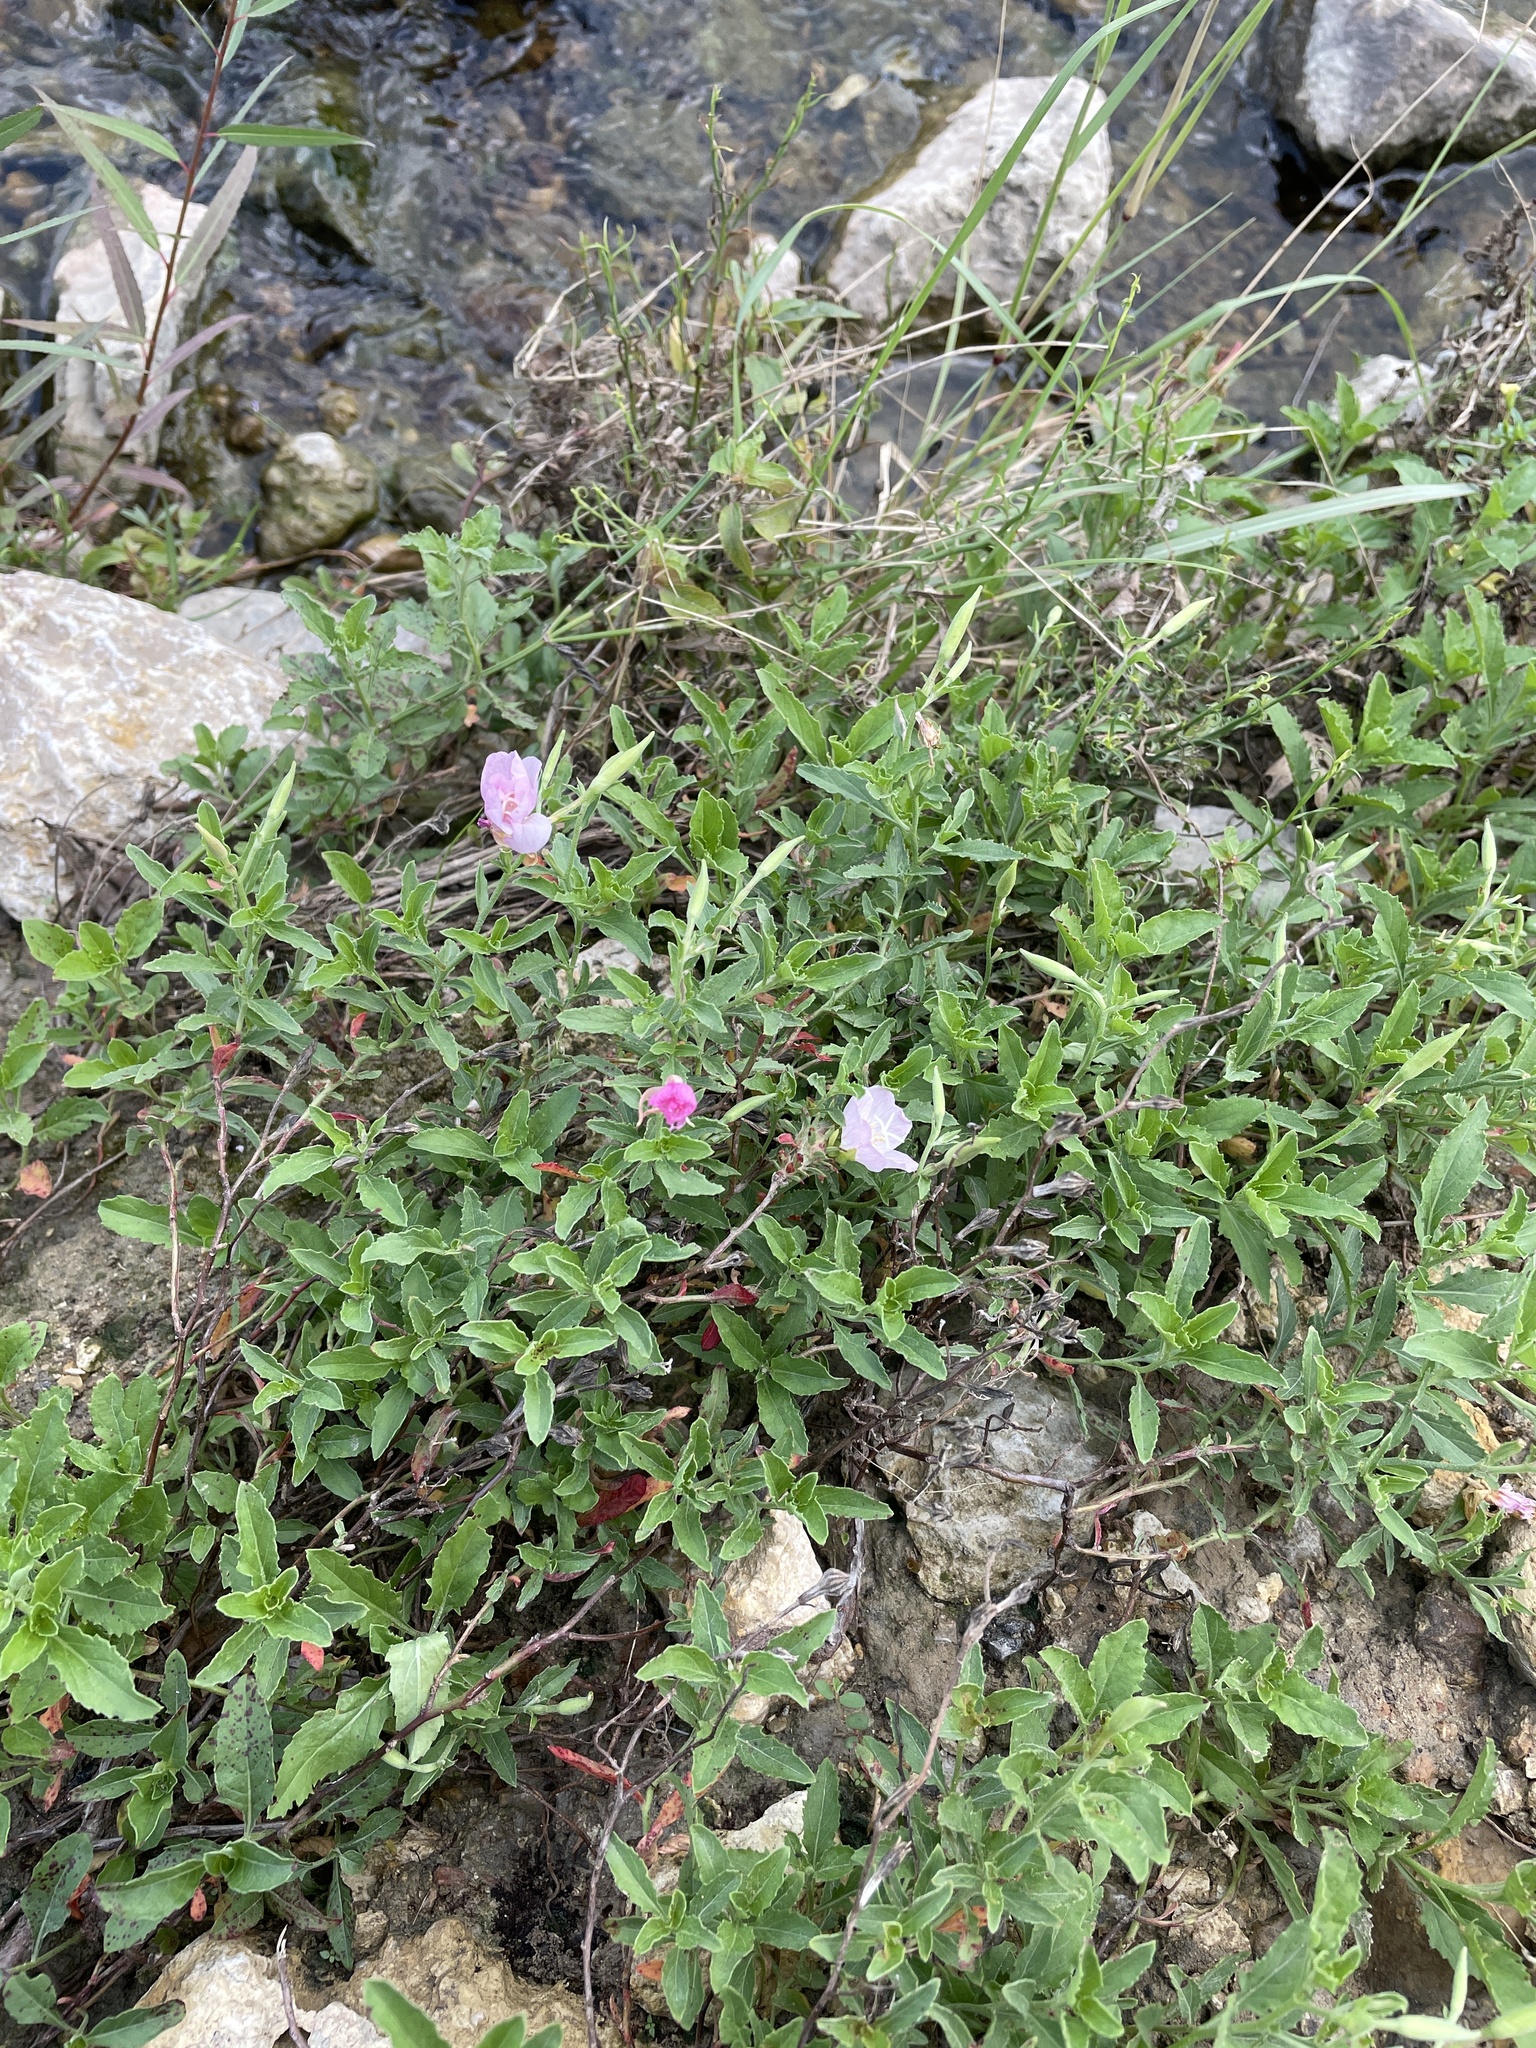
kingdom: Plantae
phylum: Tracheophyta
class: Magnoliopsida
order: Myrtales
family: Onagraceae
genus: Oenothera
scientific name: Oenothera speciosa
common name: White evening-primrose
